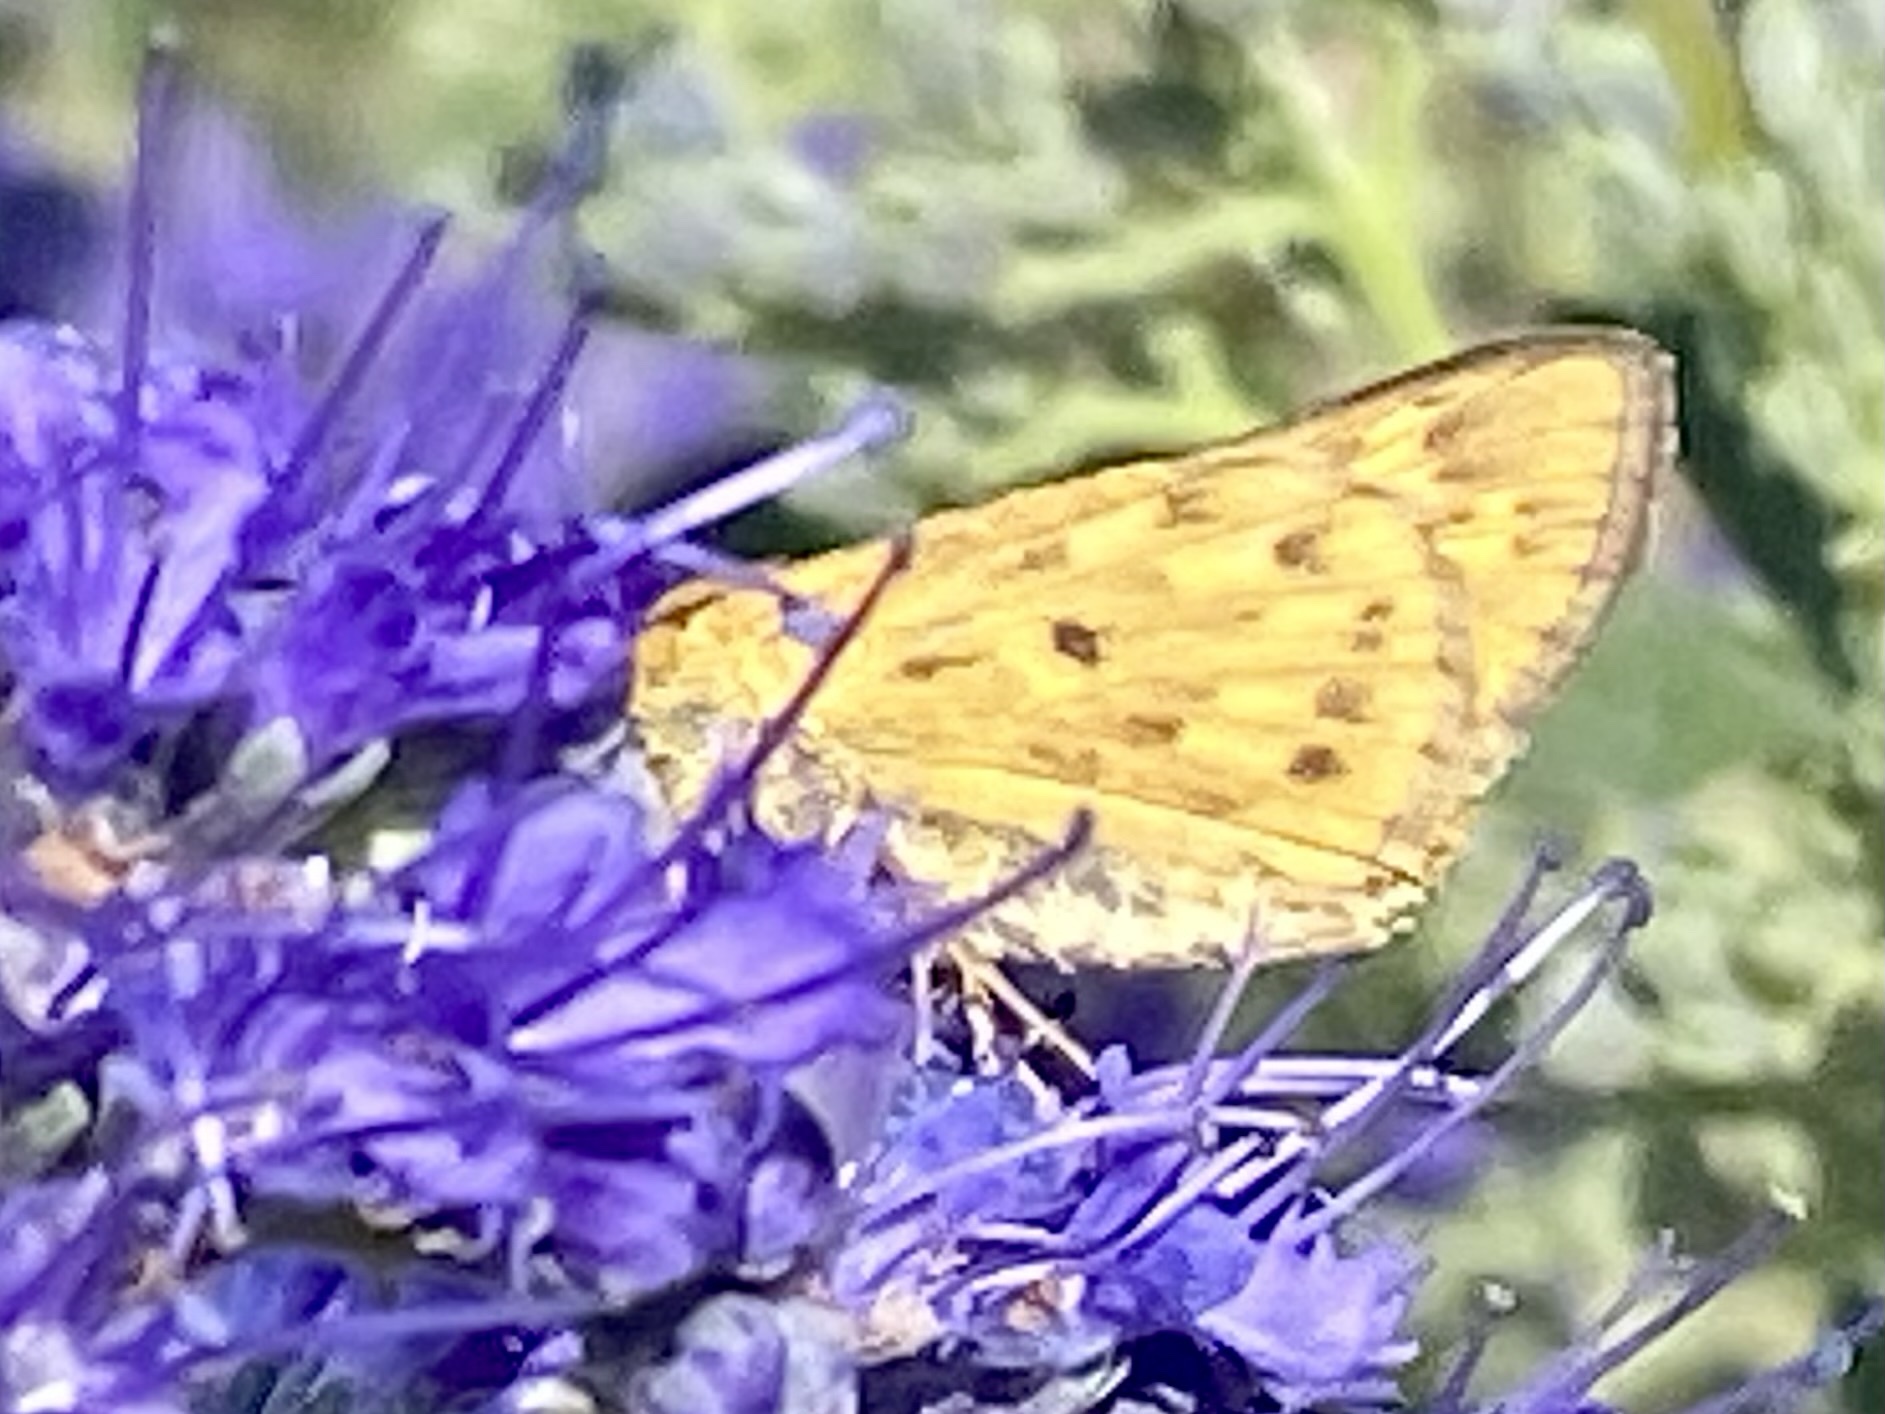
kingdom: Animalia
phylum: Arthropoda
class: Insecta
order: Lepidoptera
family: Hesperiidae
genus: Hylephila
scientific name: Hylephila phyleus
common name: Fiery skipper
